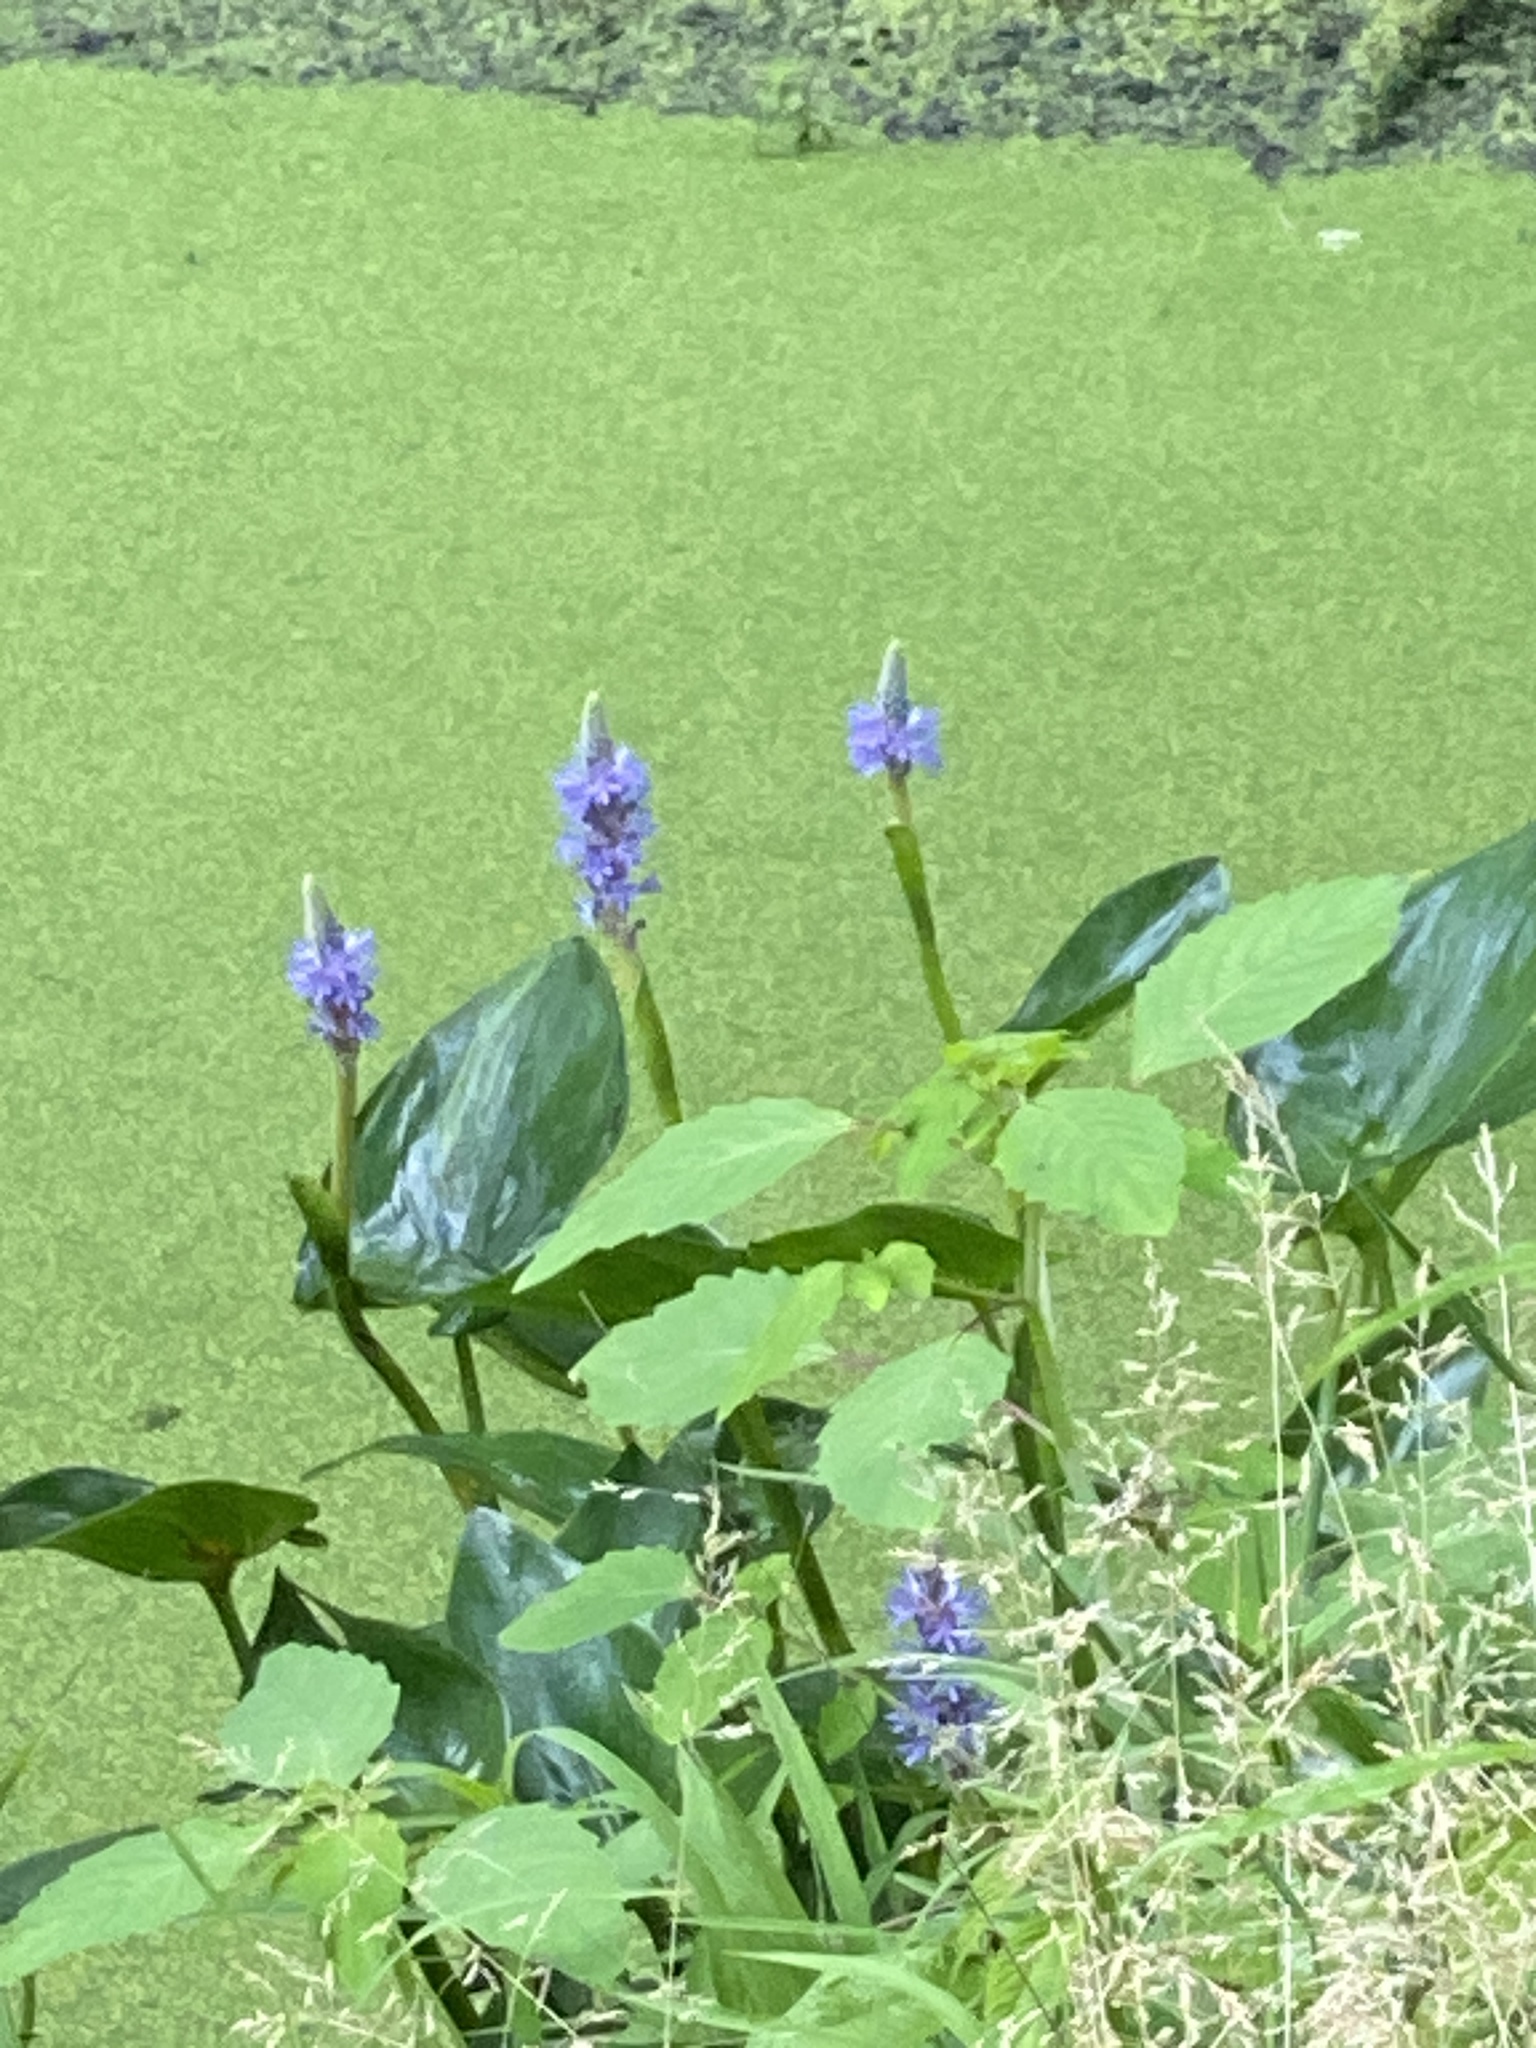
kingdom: Plantae
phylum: Tracheophyta
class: Liliopsida
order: Commelinales
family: Pontederiaceae
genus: Pontederia
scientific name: Pontederia cordata
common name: Pickerelweed
